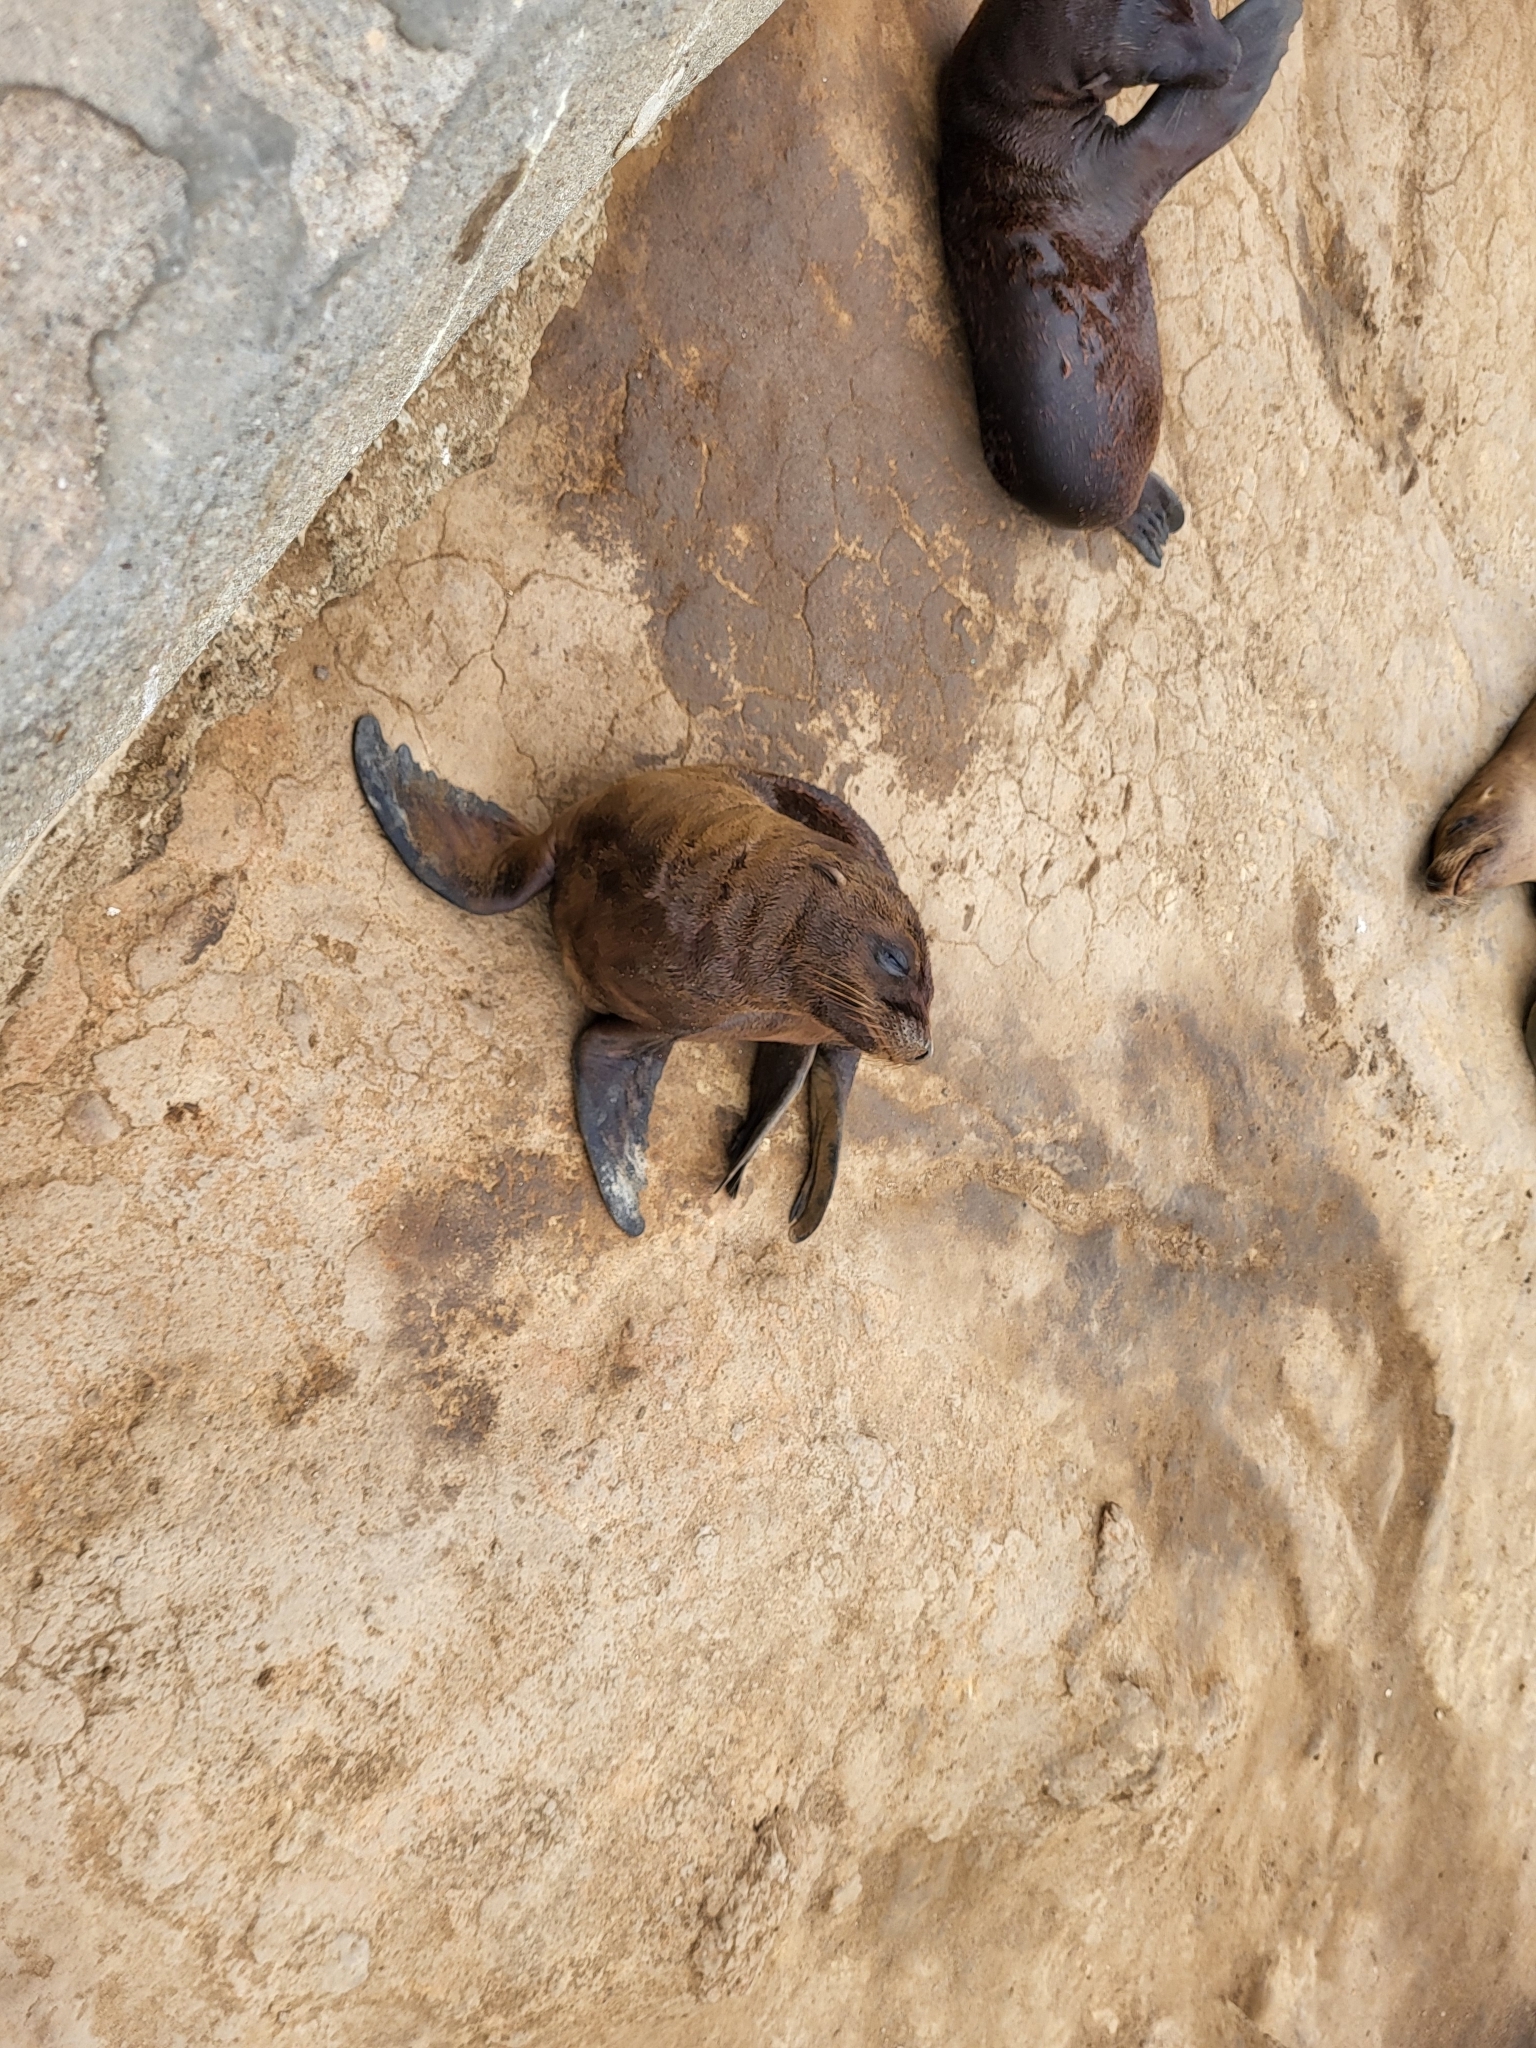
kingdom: Animalia
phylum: Chordata
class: Mammalia
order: Carnivora
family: Otariidae
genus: Zalophus
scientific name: Zalophus californianus
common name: California sea lion
